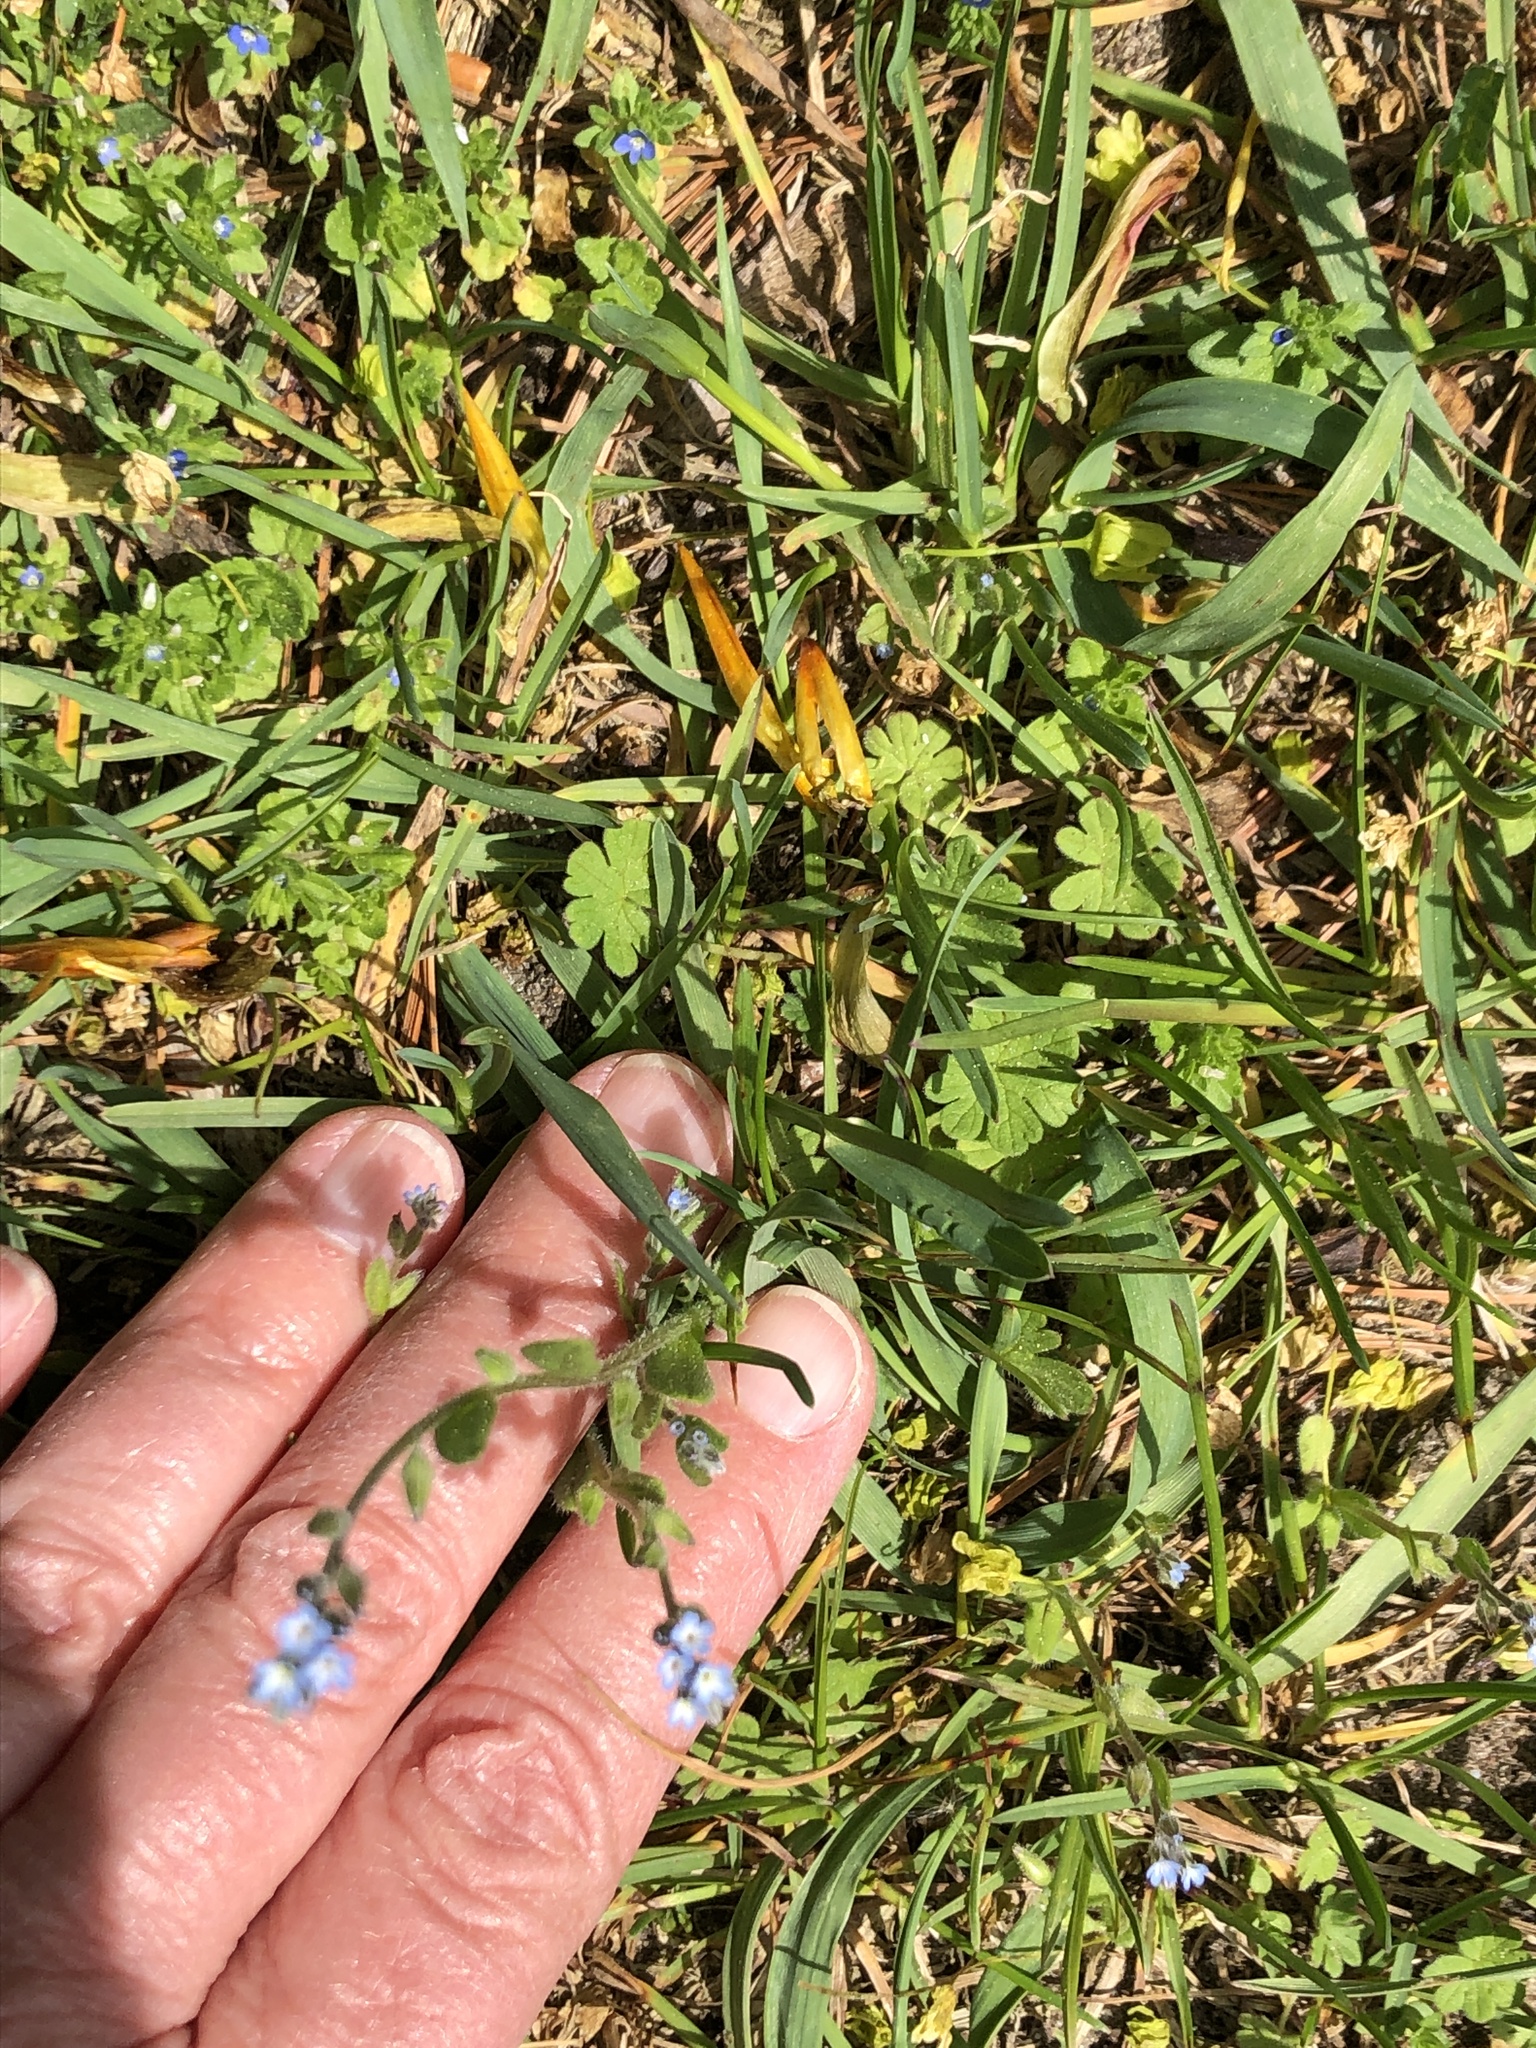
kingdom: Plantae
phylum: Tracheophyta
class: Magnoliopsida
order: Boraginales
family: Boraginaceae
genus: Myosotis
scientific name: Myosotis stricta
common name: Strict forget-me-not
